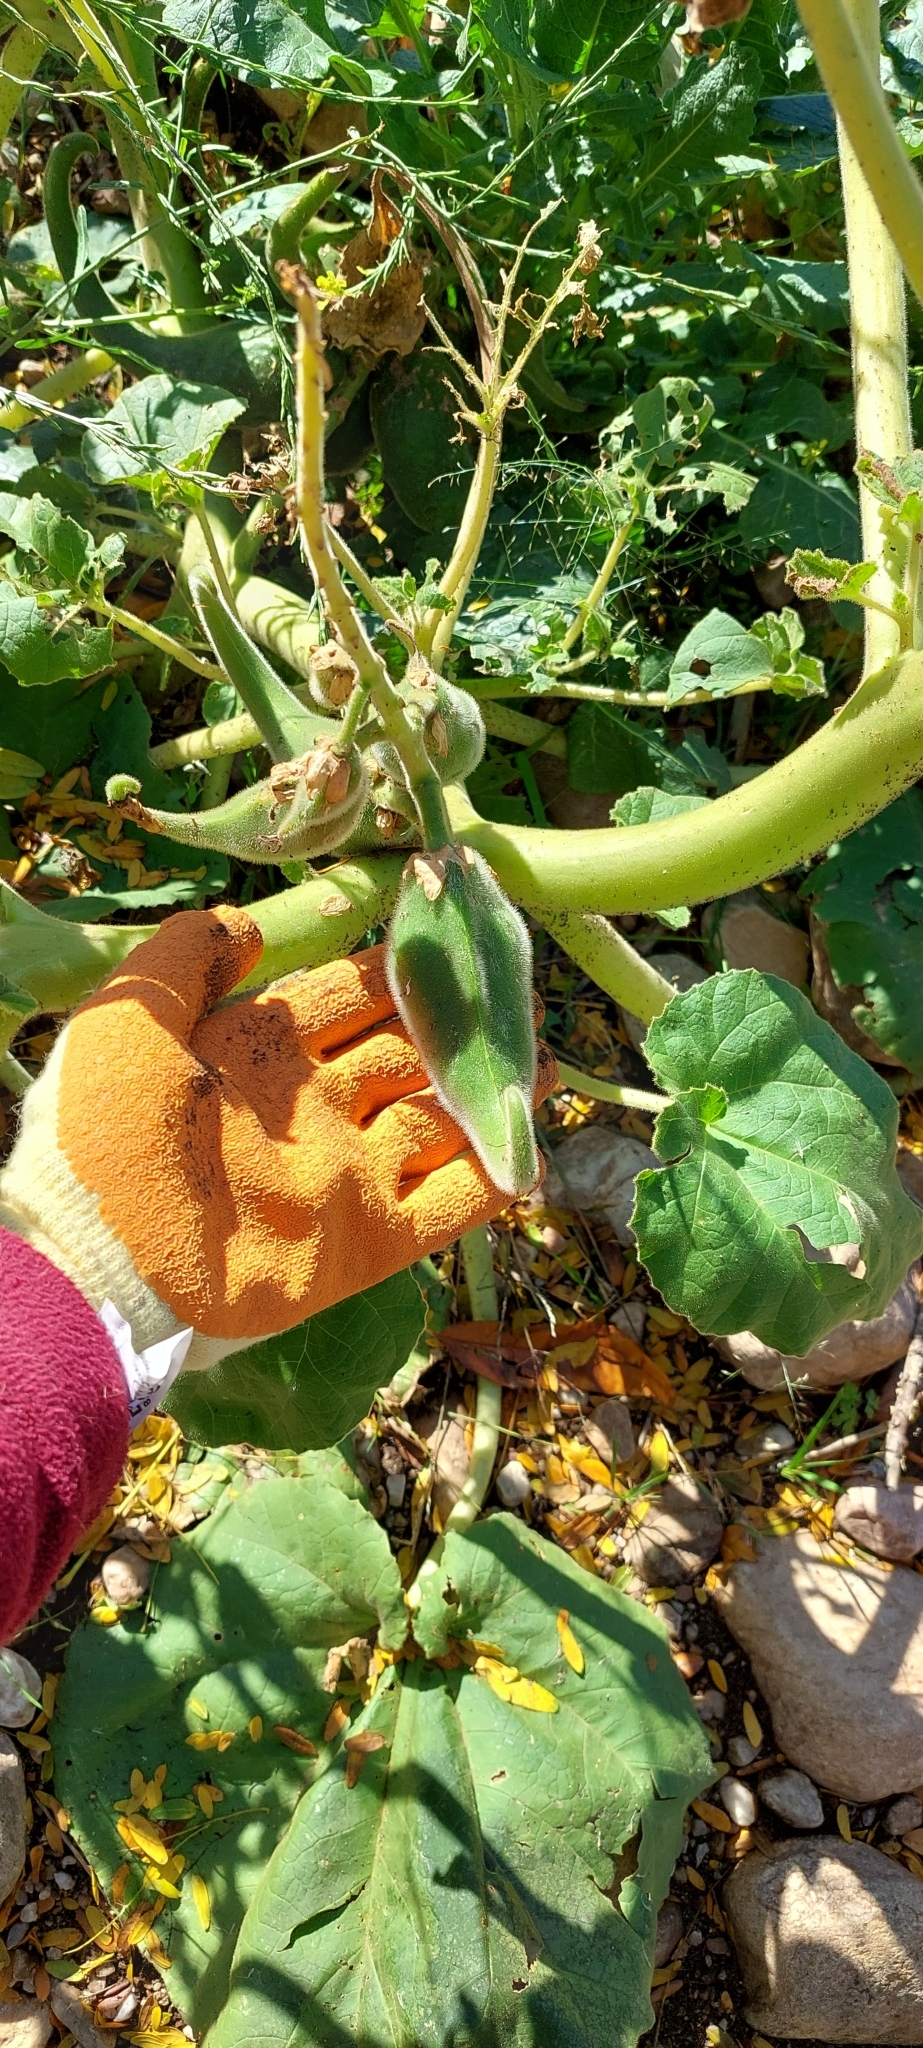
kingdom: Plantae
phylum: Tracheophyta
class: Magnoliopsida
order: Lamiales
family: Martyniaceae
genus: Ibicella
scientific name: Ibicella lutea
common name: Yellow unicorn-plant
